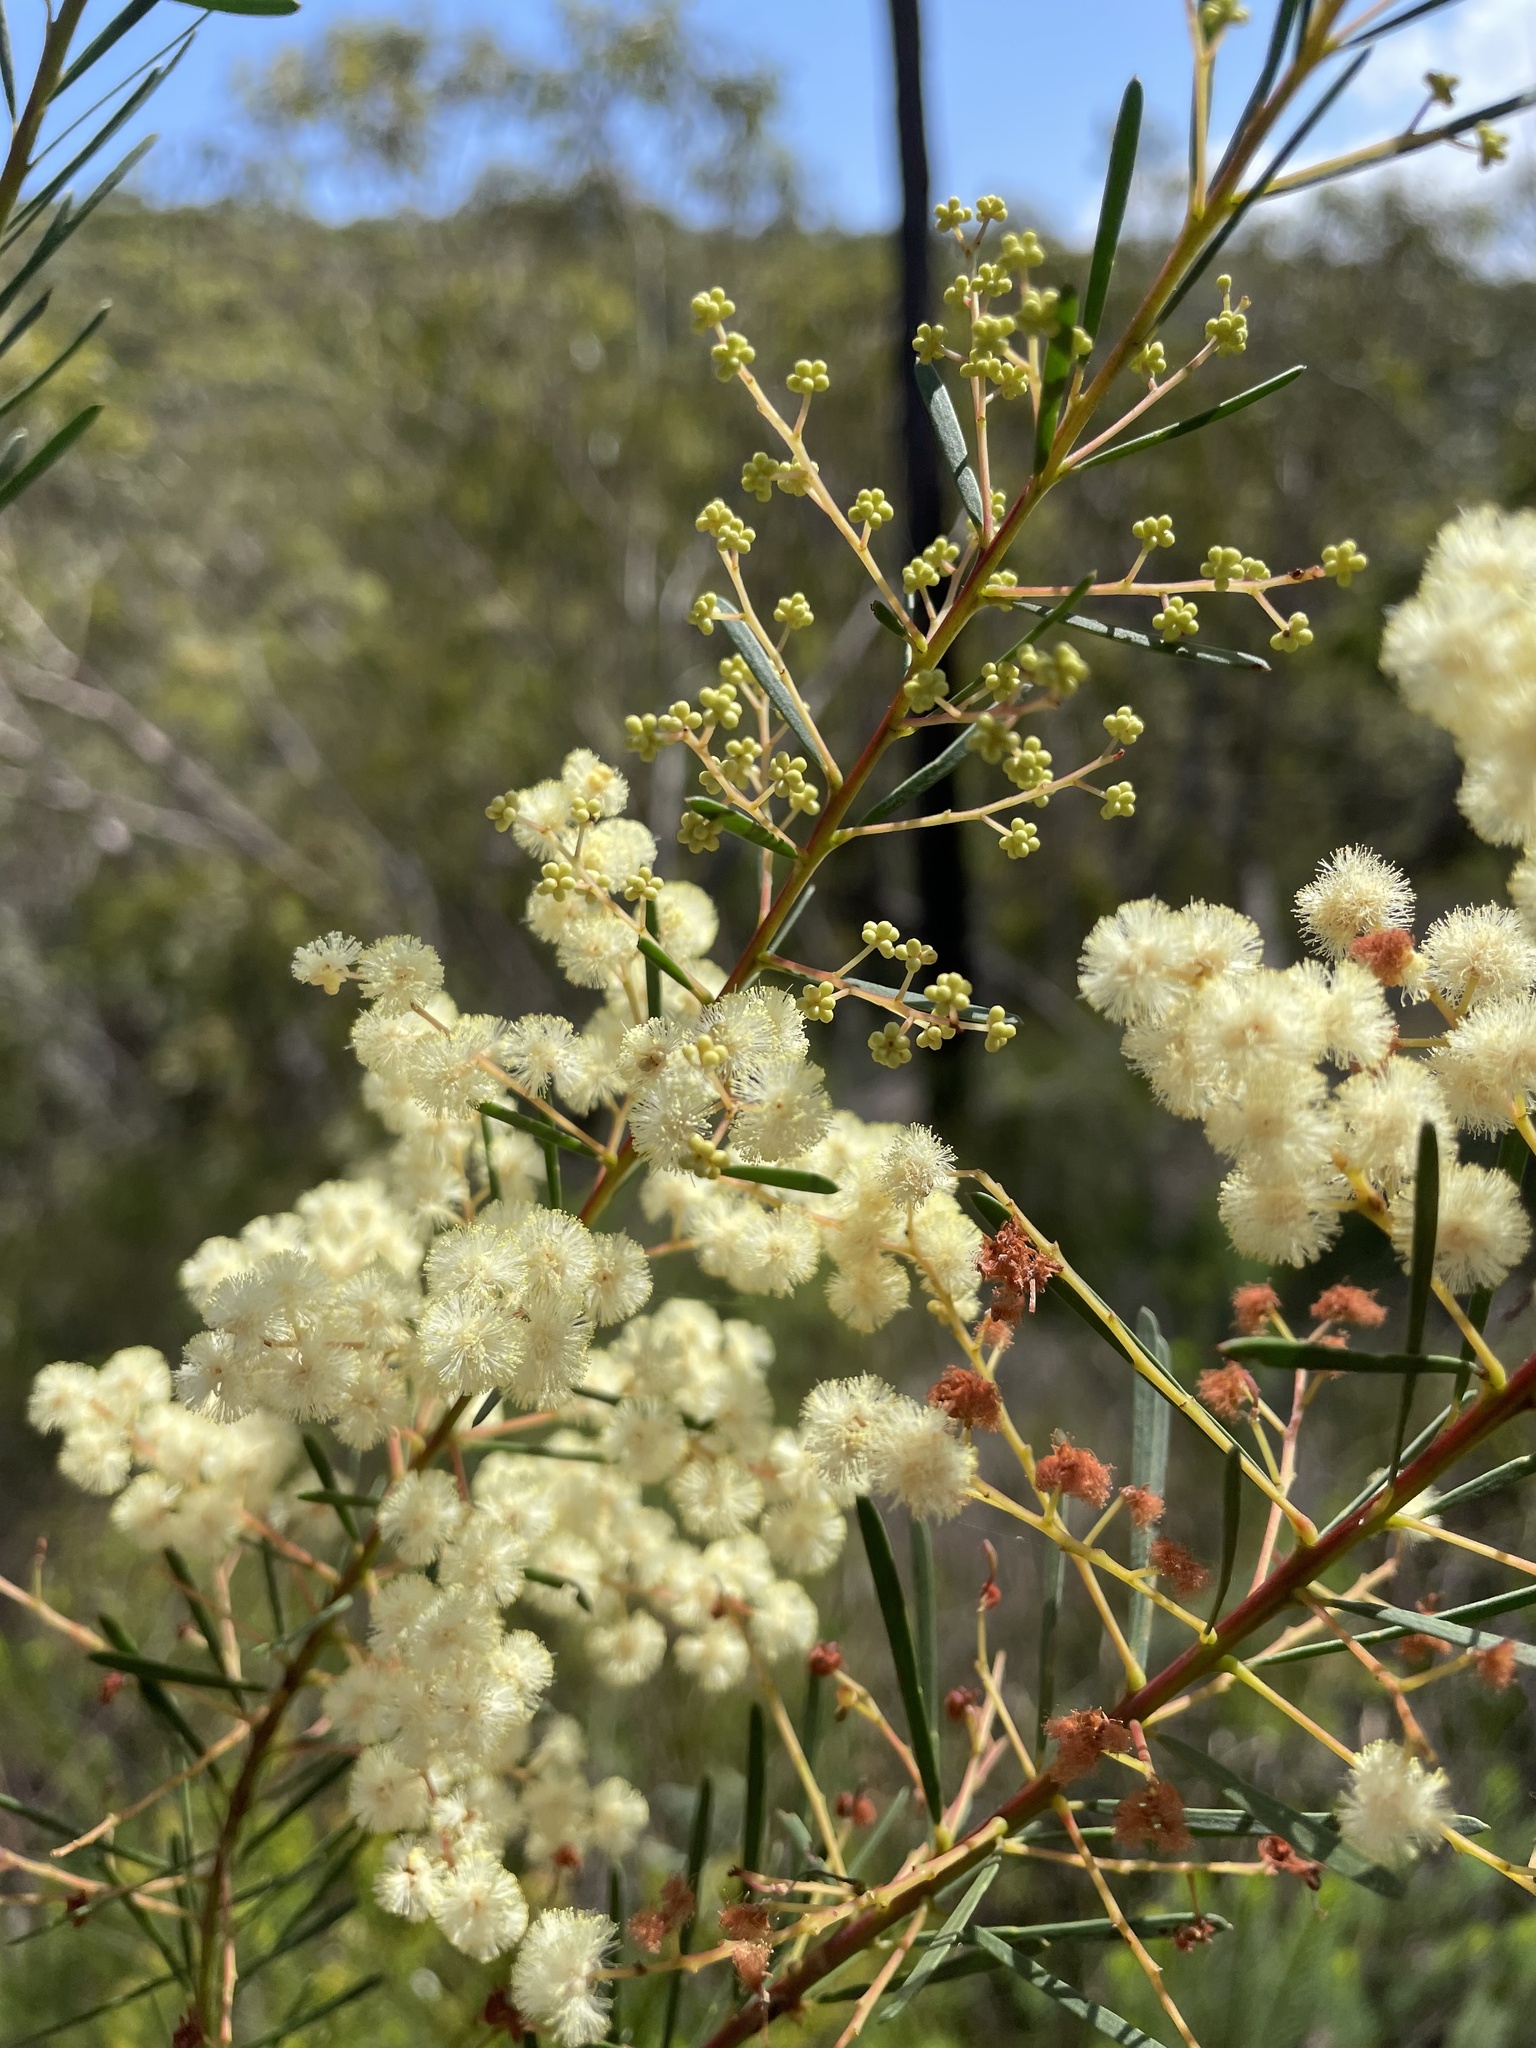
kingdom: Plantae
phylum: Tracheophyta
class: Magnoliopsida
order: Fabales
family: Fabaceae
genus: Acacia
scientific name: Acacia linifolia
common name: White wattle
